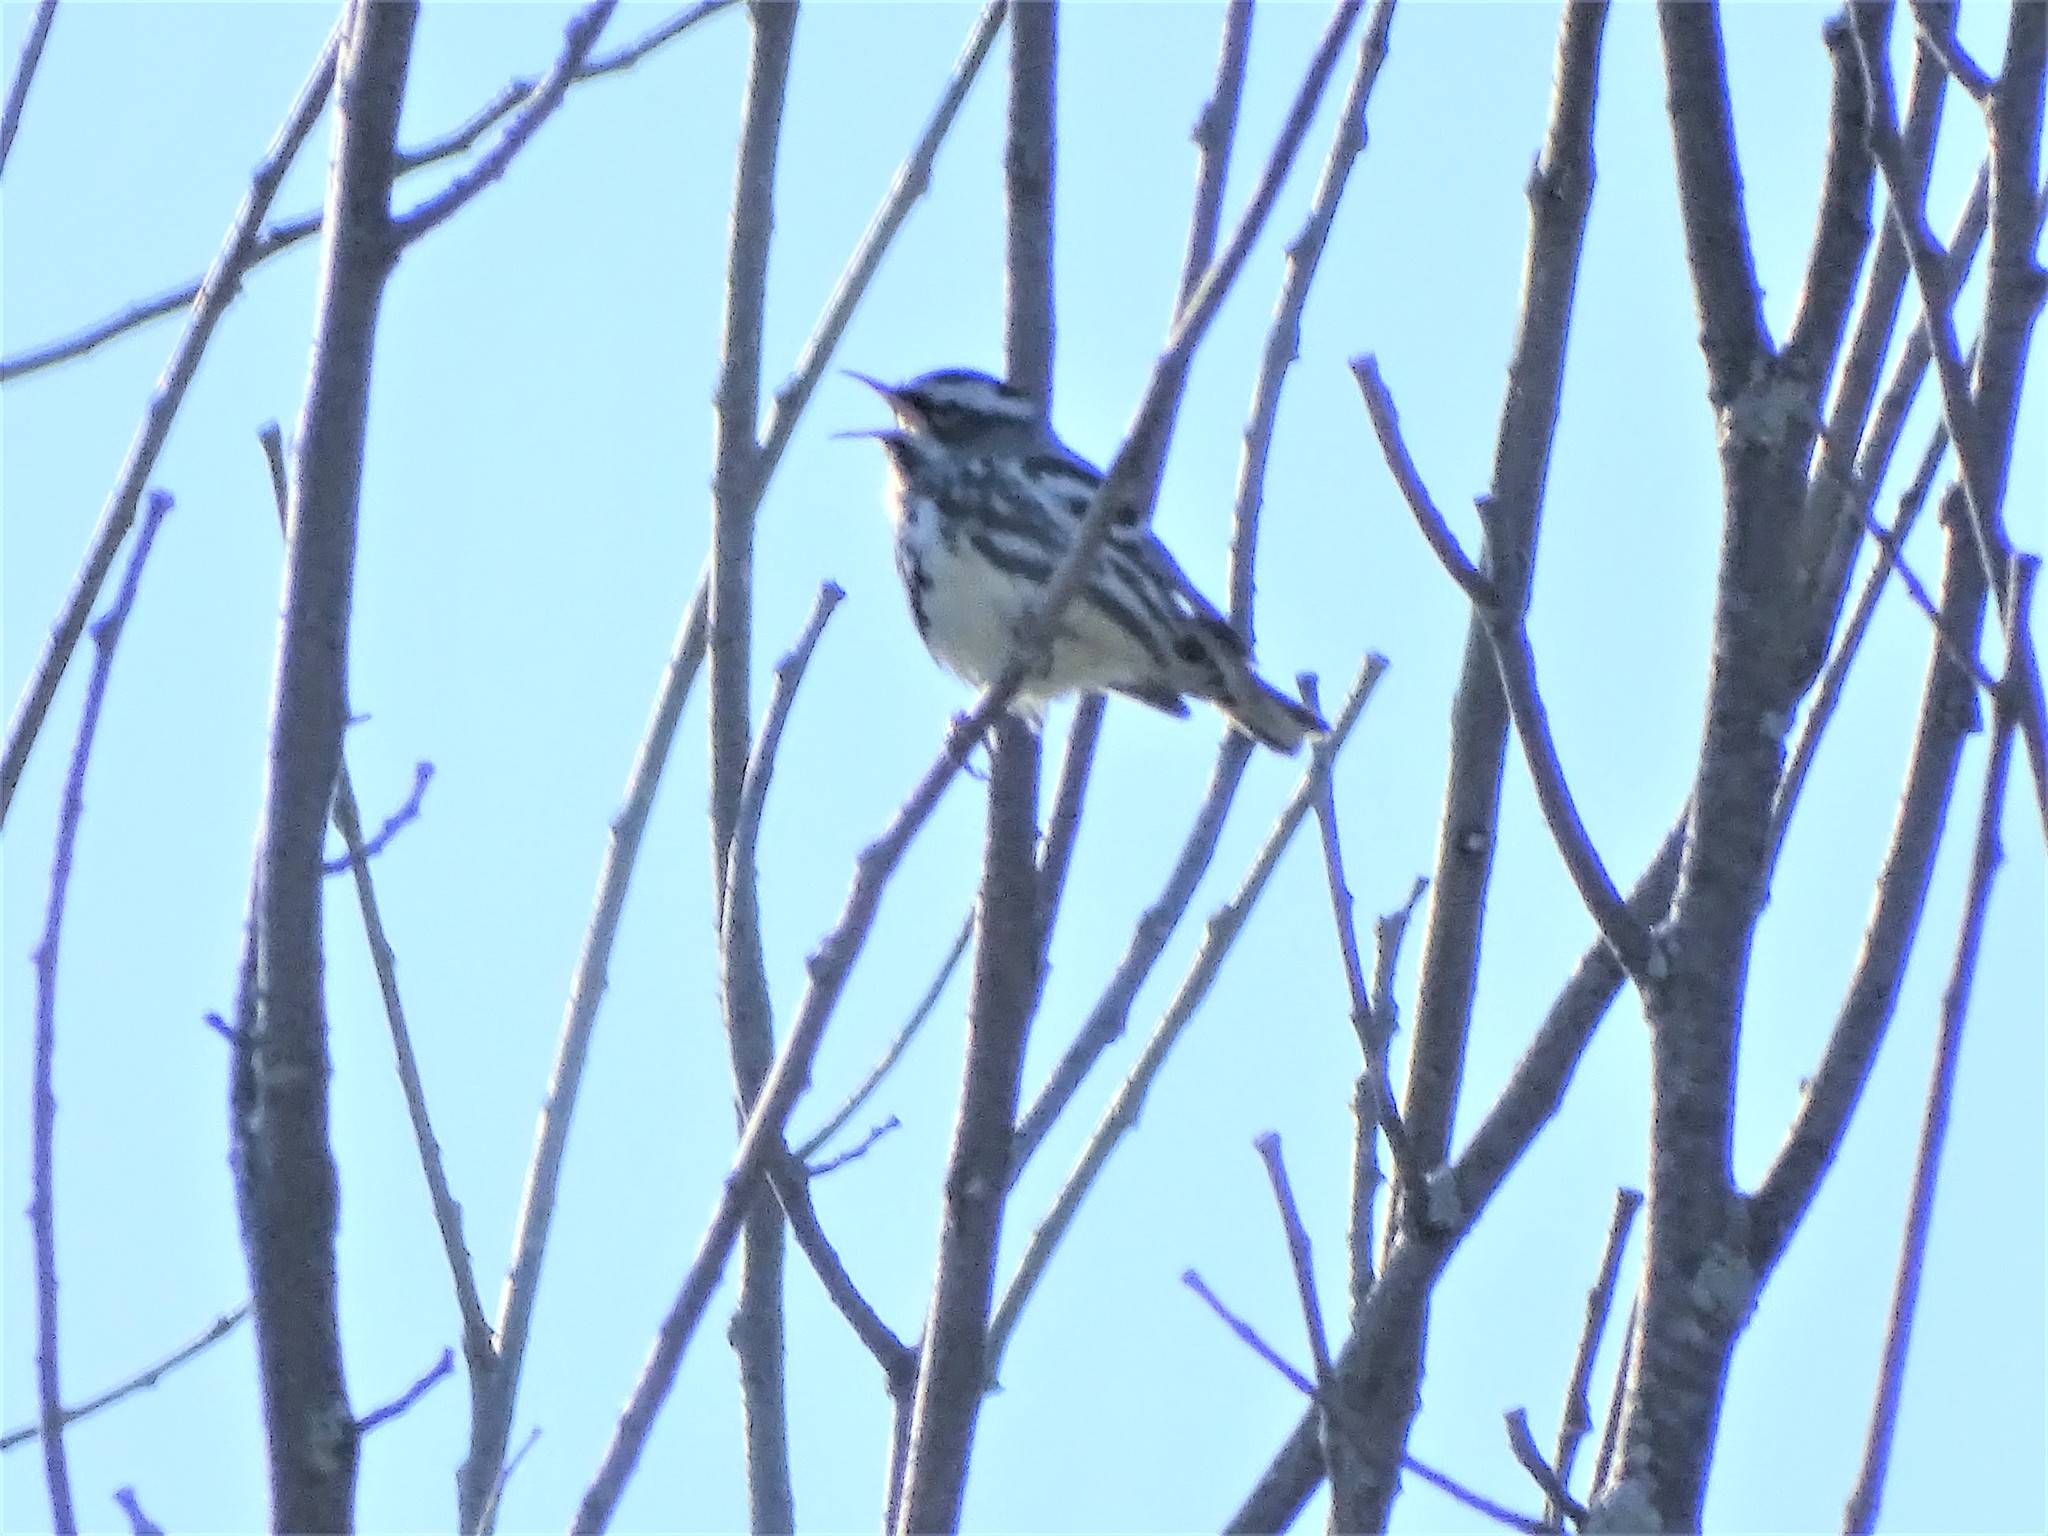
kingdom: Animalia
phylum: Chordata
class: Aves
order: Passeriformes
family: Parulidae
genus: Mniotilta
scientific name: Mniotilta varia
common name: Black-and-white warbler
